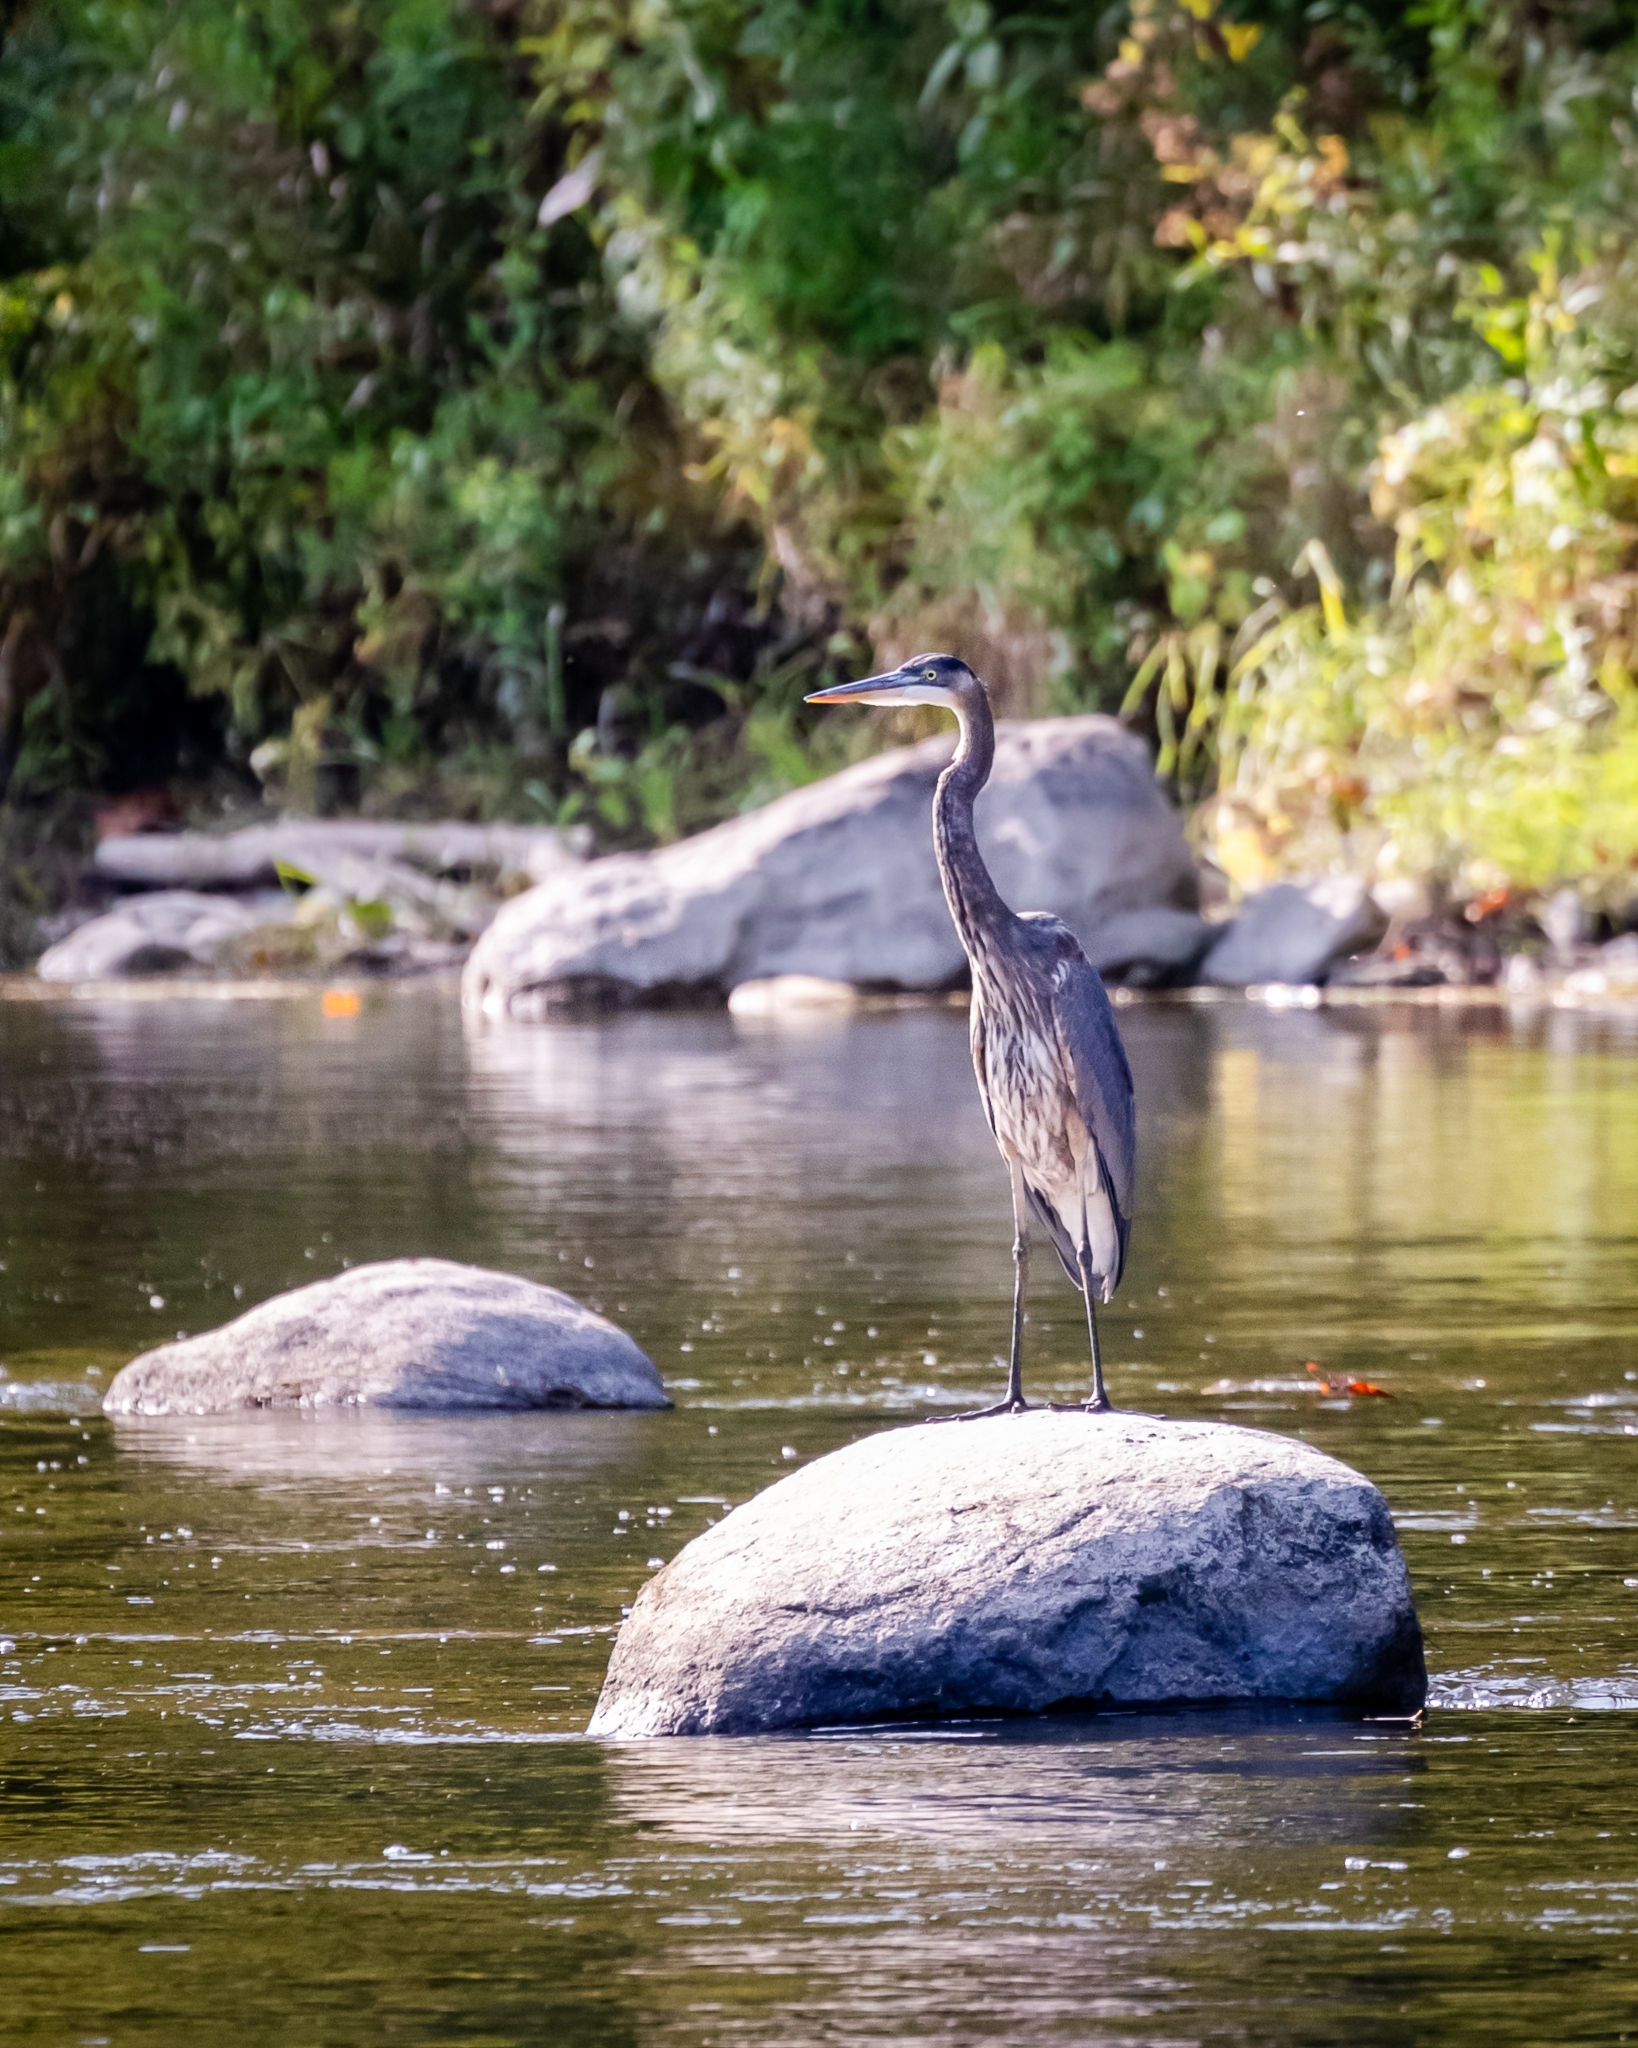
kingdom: Animalia
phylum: Chordata
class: Aves
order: Pelecaniformes
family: Ardeidae
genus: Ardea
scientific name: Ardea herodias
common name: Great blue heron
